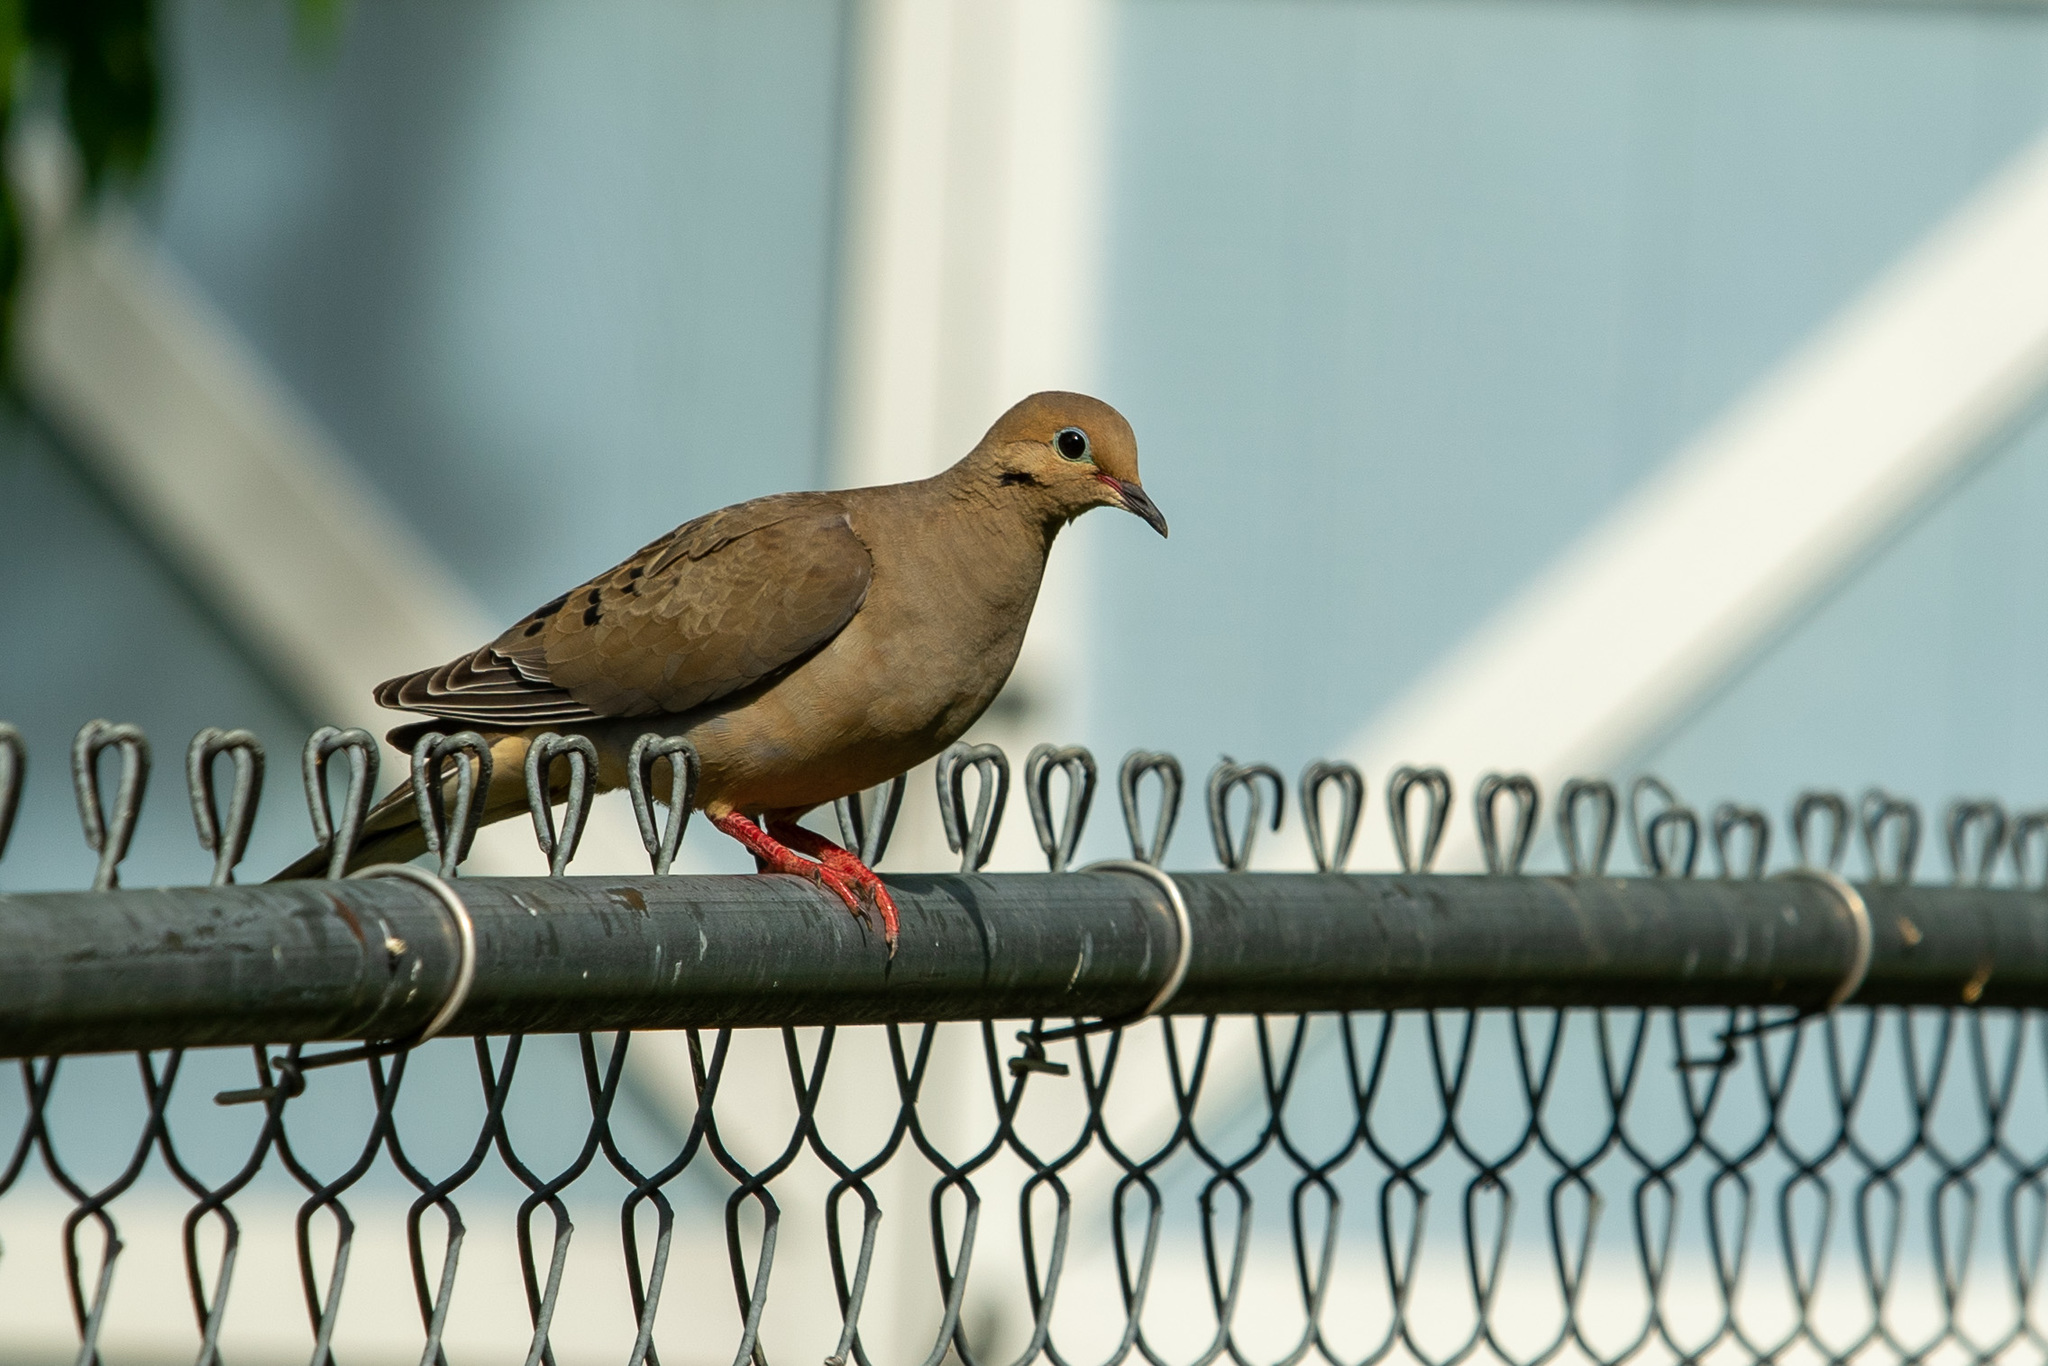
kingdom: Animalia
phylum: Chordata
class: Aves
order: Columbiformes
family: Columbidae
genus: Zenaida
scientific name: Zenaida macroura
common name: Mourning dove
